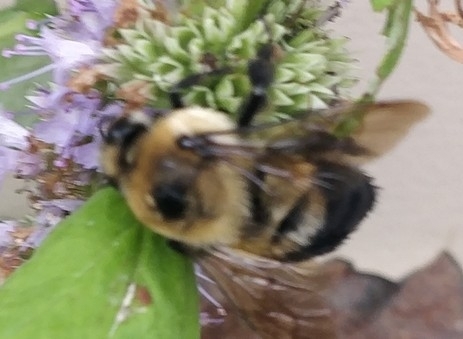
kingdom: Animalia
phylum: Arthropoda
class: Insecta
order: Hymenoptera
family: Apidae
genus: Bombus
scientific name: Bombus griseocollis
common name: Brown-belted bumble bee
